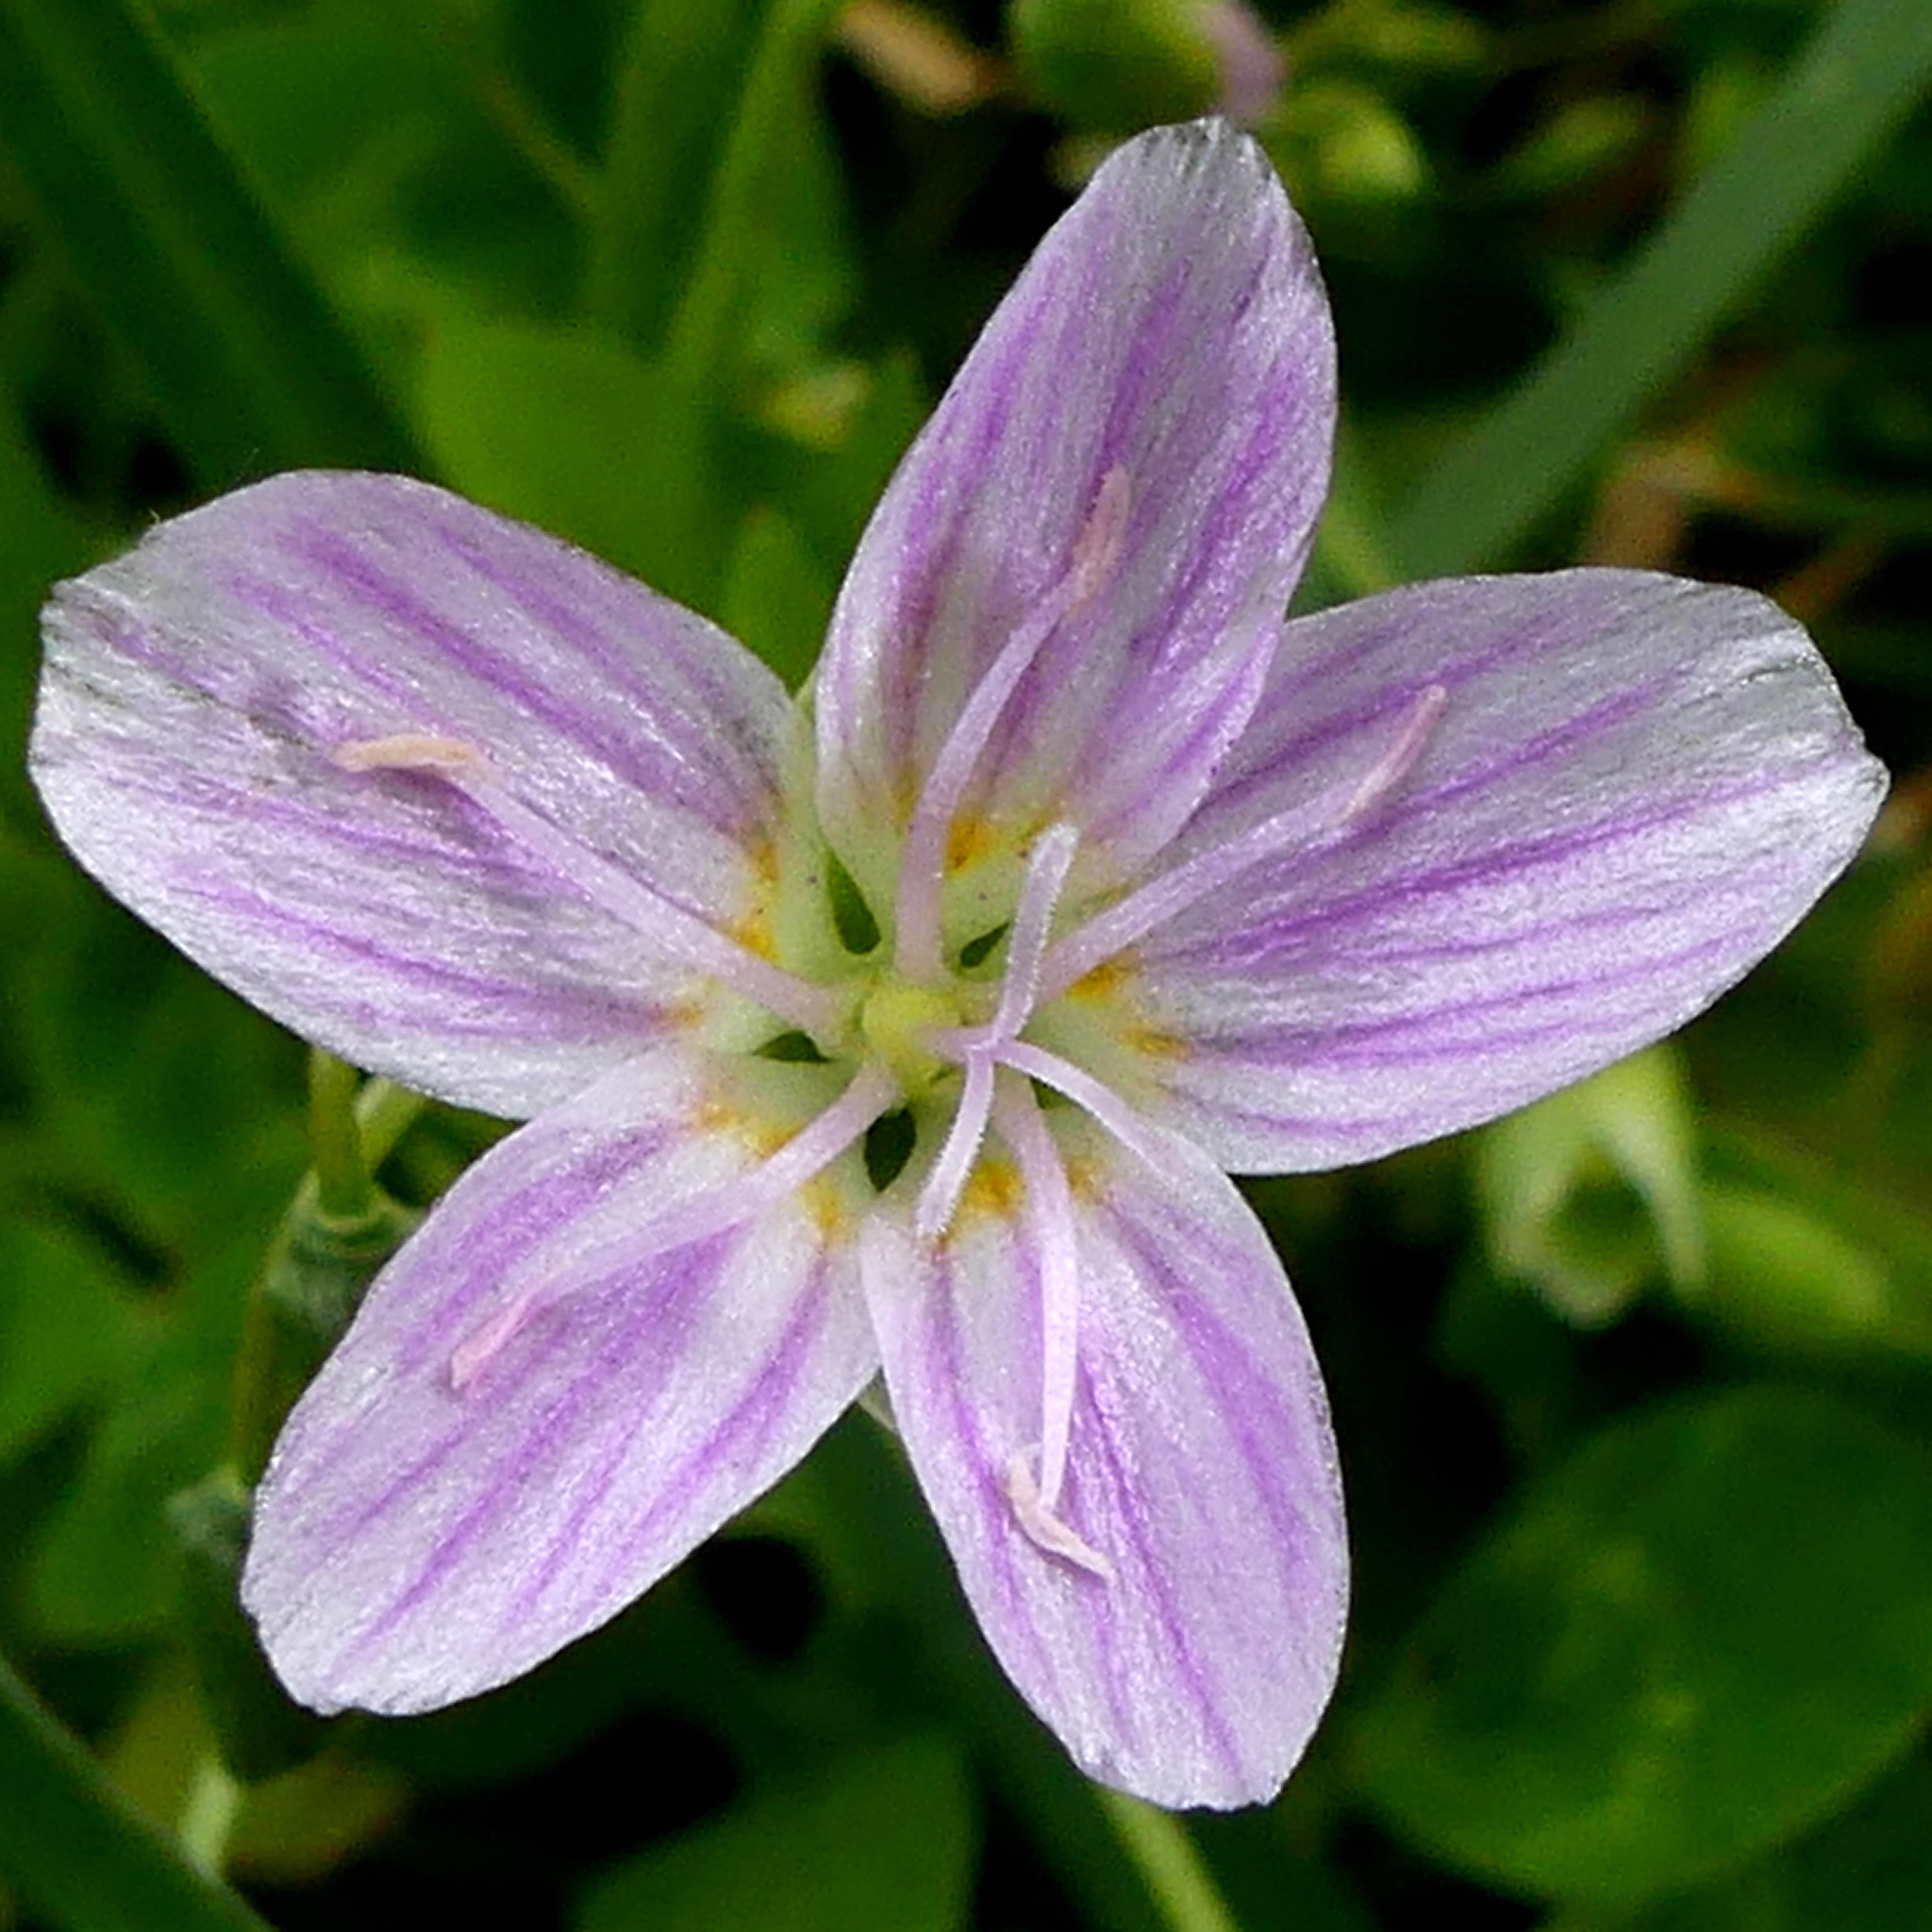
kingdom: Plantae
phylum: Tracheophyta
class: Magnoliopsida
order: Caryophyllales
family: Montiaceae
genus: Claytonia
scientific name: Claytonia virginica
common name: Virginia springbeauty
